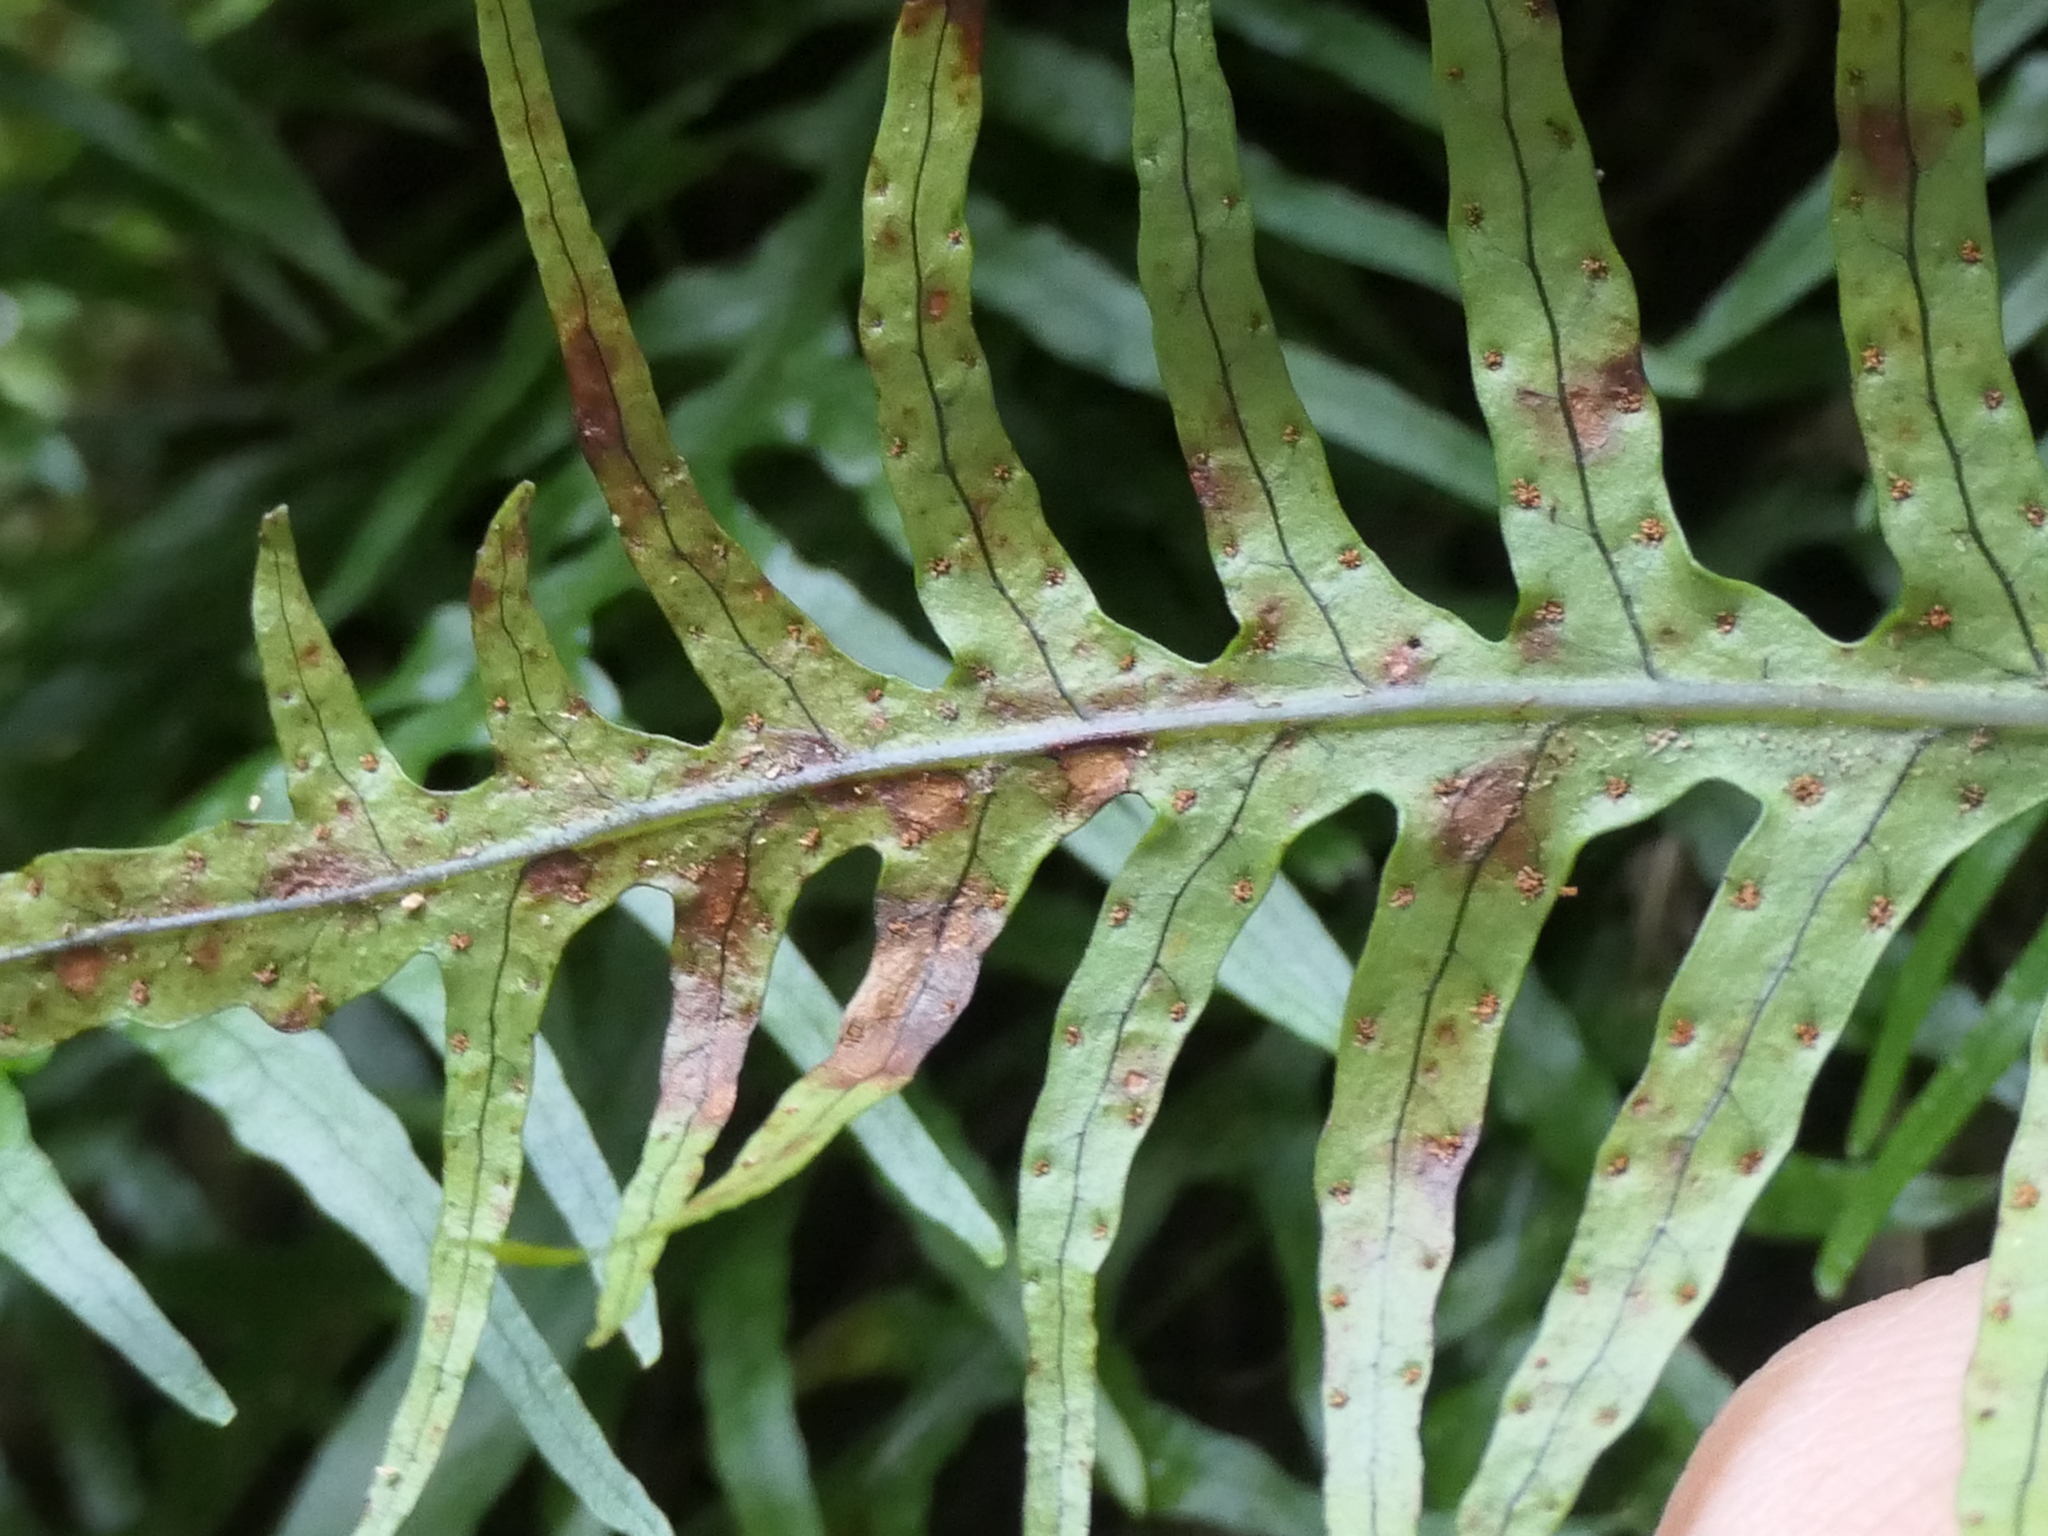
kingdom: Plantae
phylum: Tracheophyta
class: Polypodiopsida
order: Polypodiales
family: Polypodiaceae
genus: Lecanopteris
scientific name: Lecanopteris scandens
